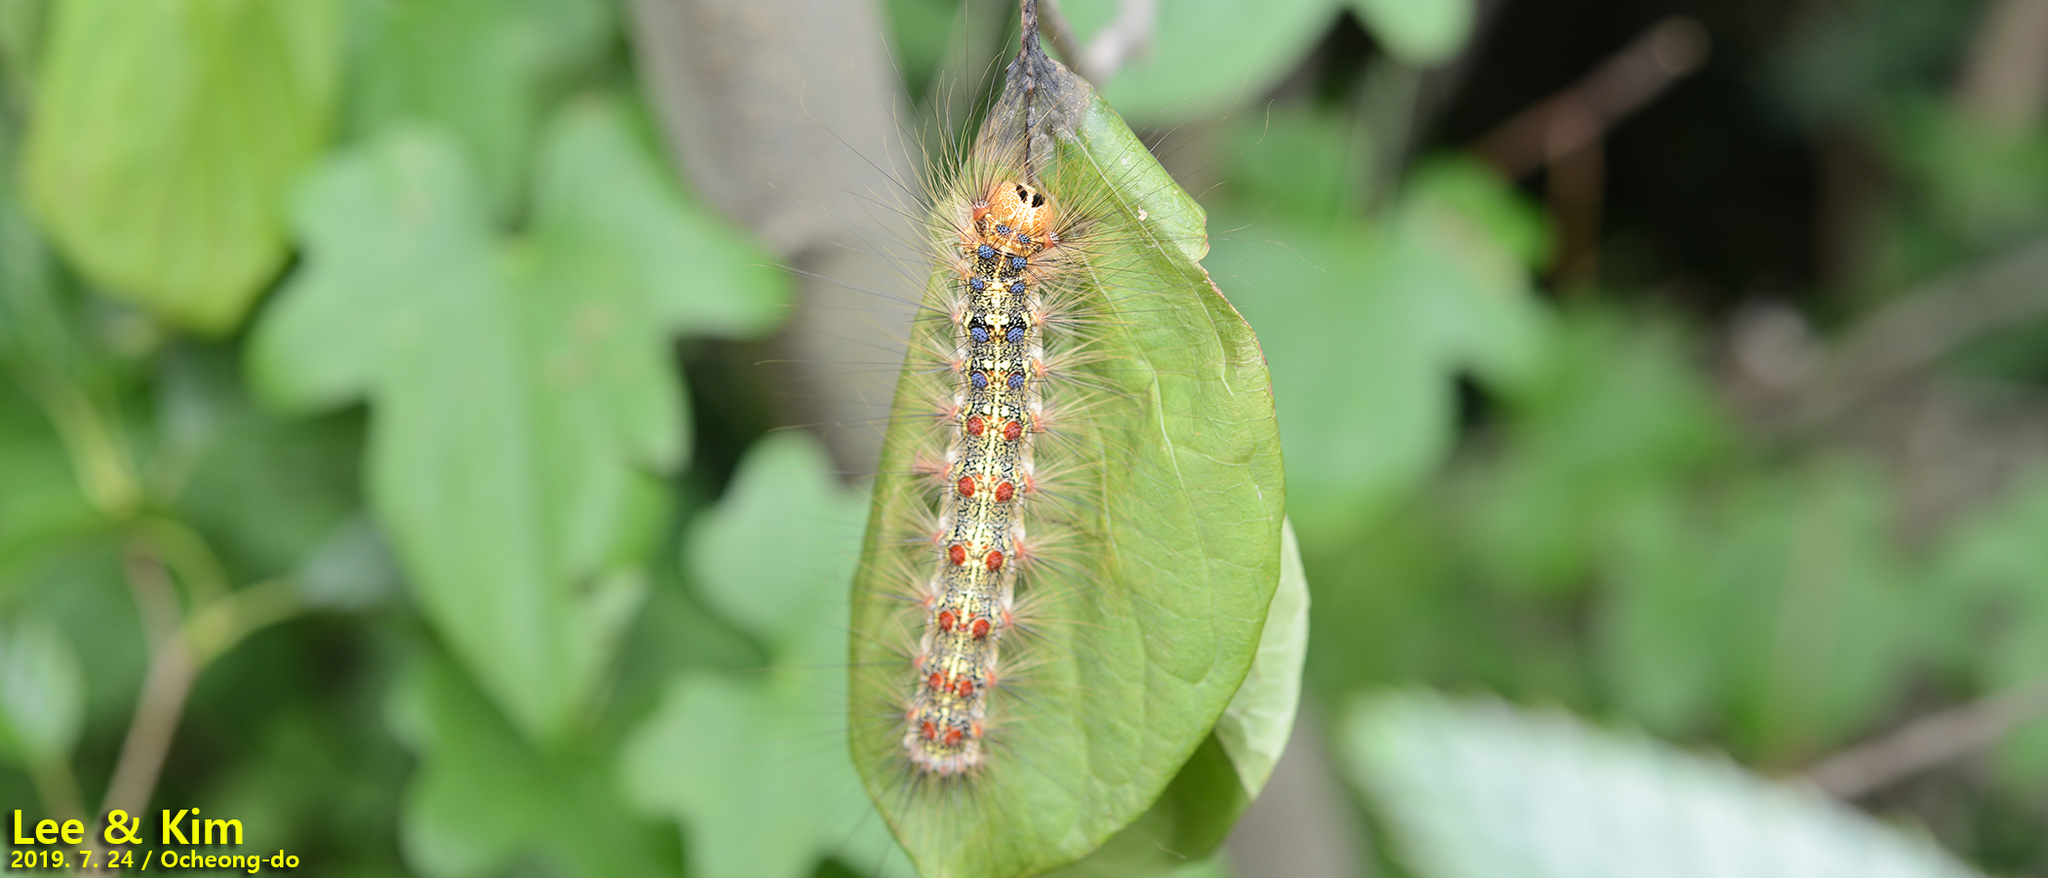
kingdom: Animalia
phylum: Arthropoda
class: Insecta
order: Lepidoptera
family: Erebidae
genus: Lymantria
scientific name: Lymantria dispar
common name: Gypsy moth
